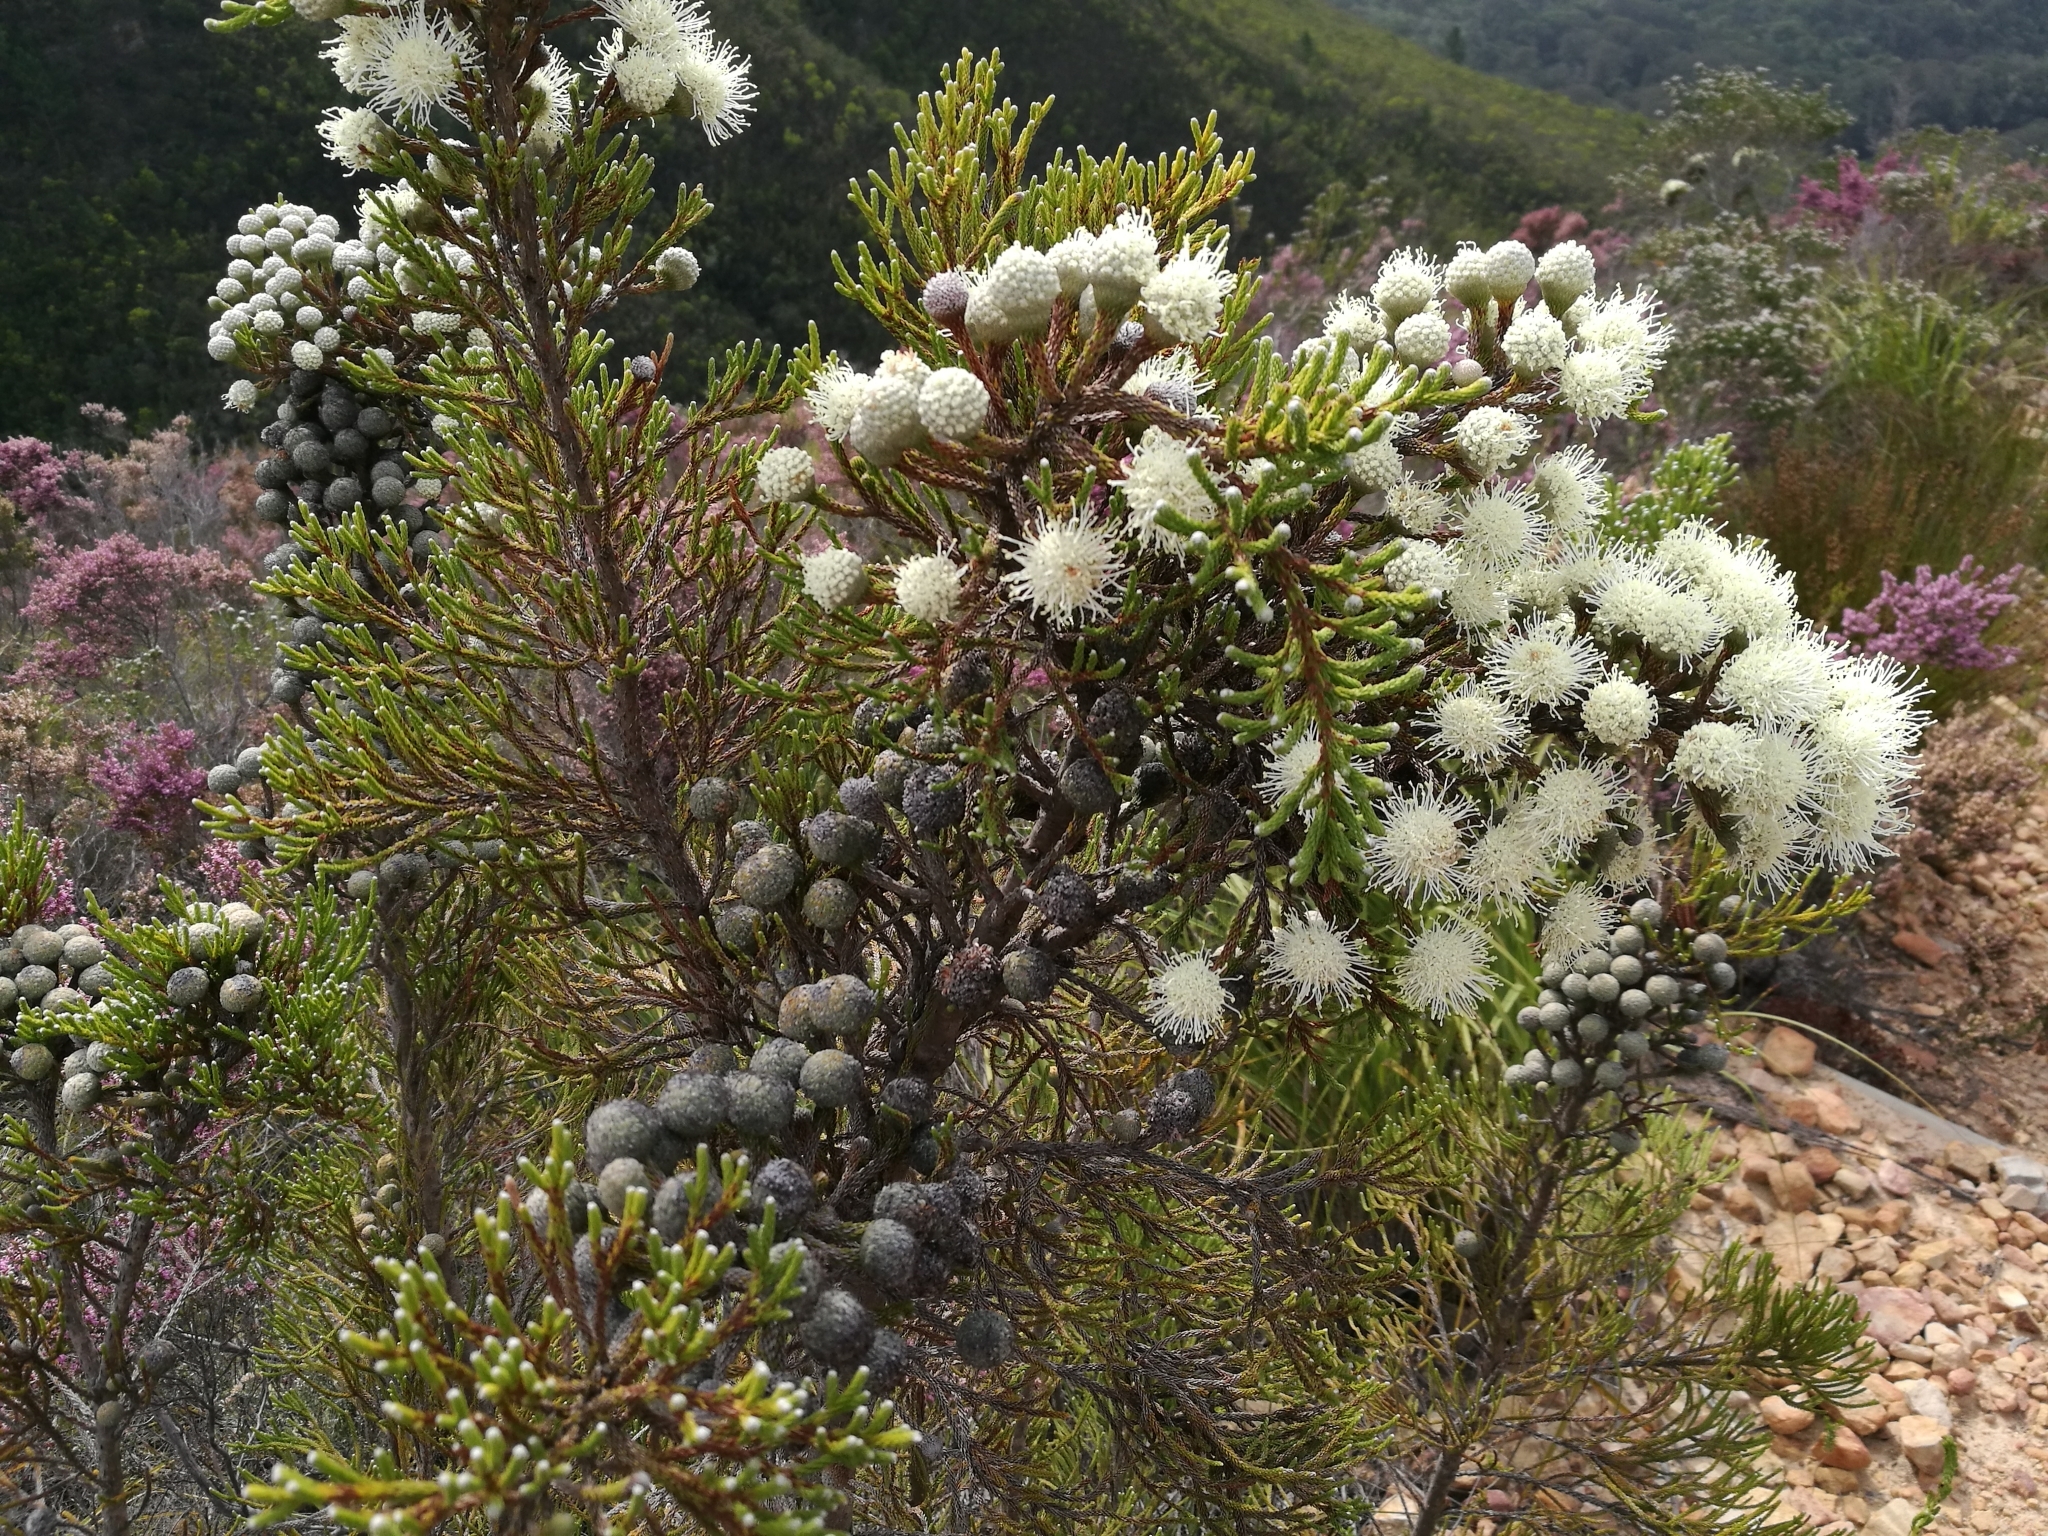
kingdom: Plantae
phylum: Tracheophyta
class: Magnoliopsida
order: Bruniales
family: Bruniaceae
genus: Brunia
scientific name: Brunia noduliflora
